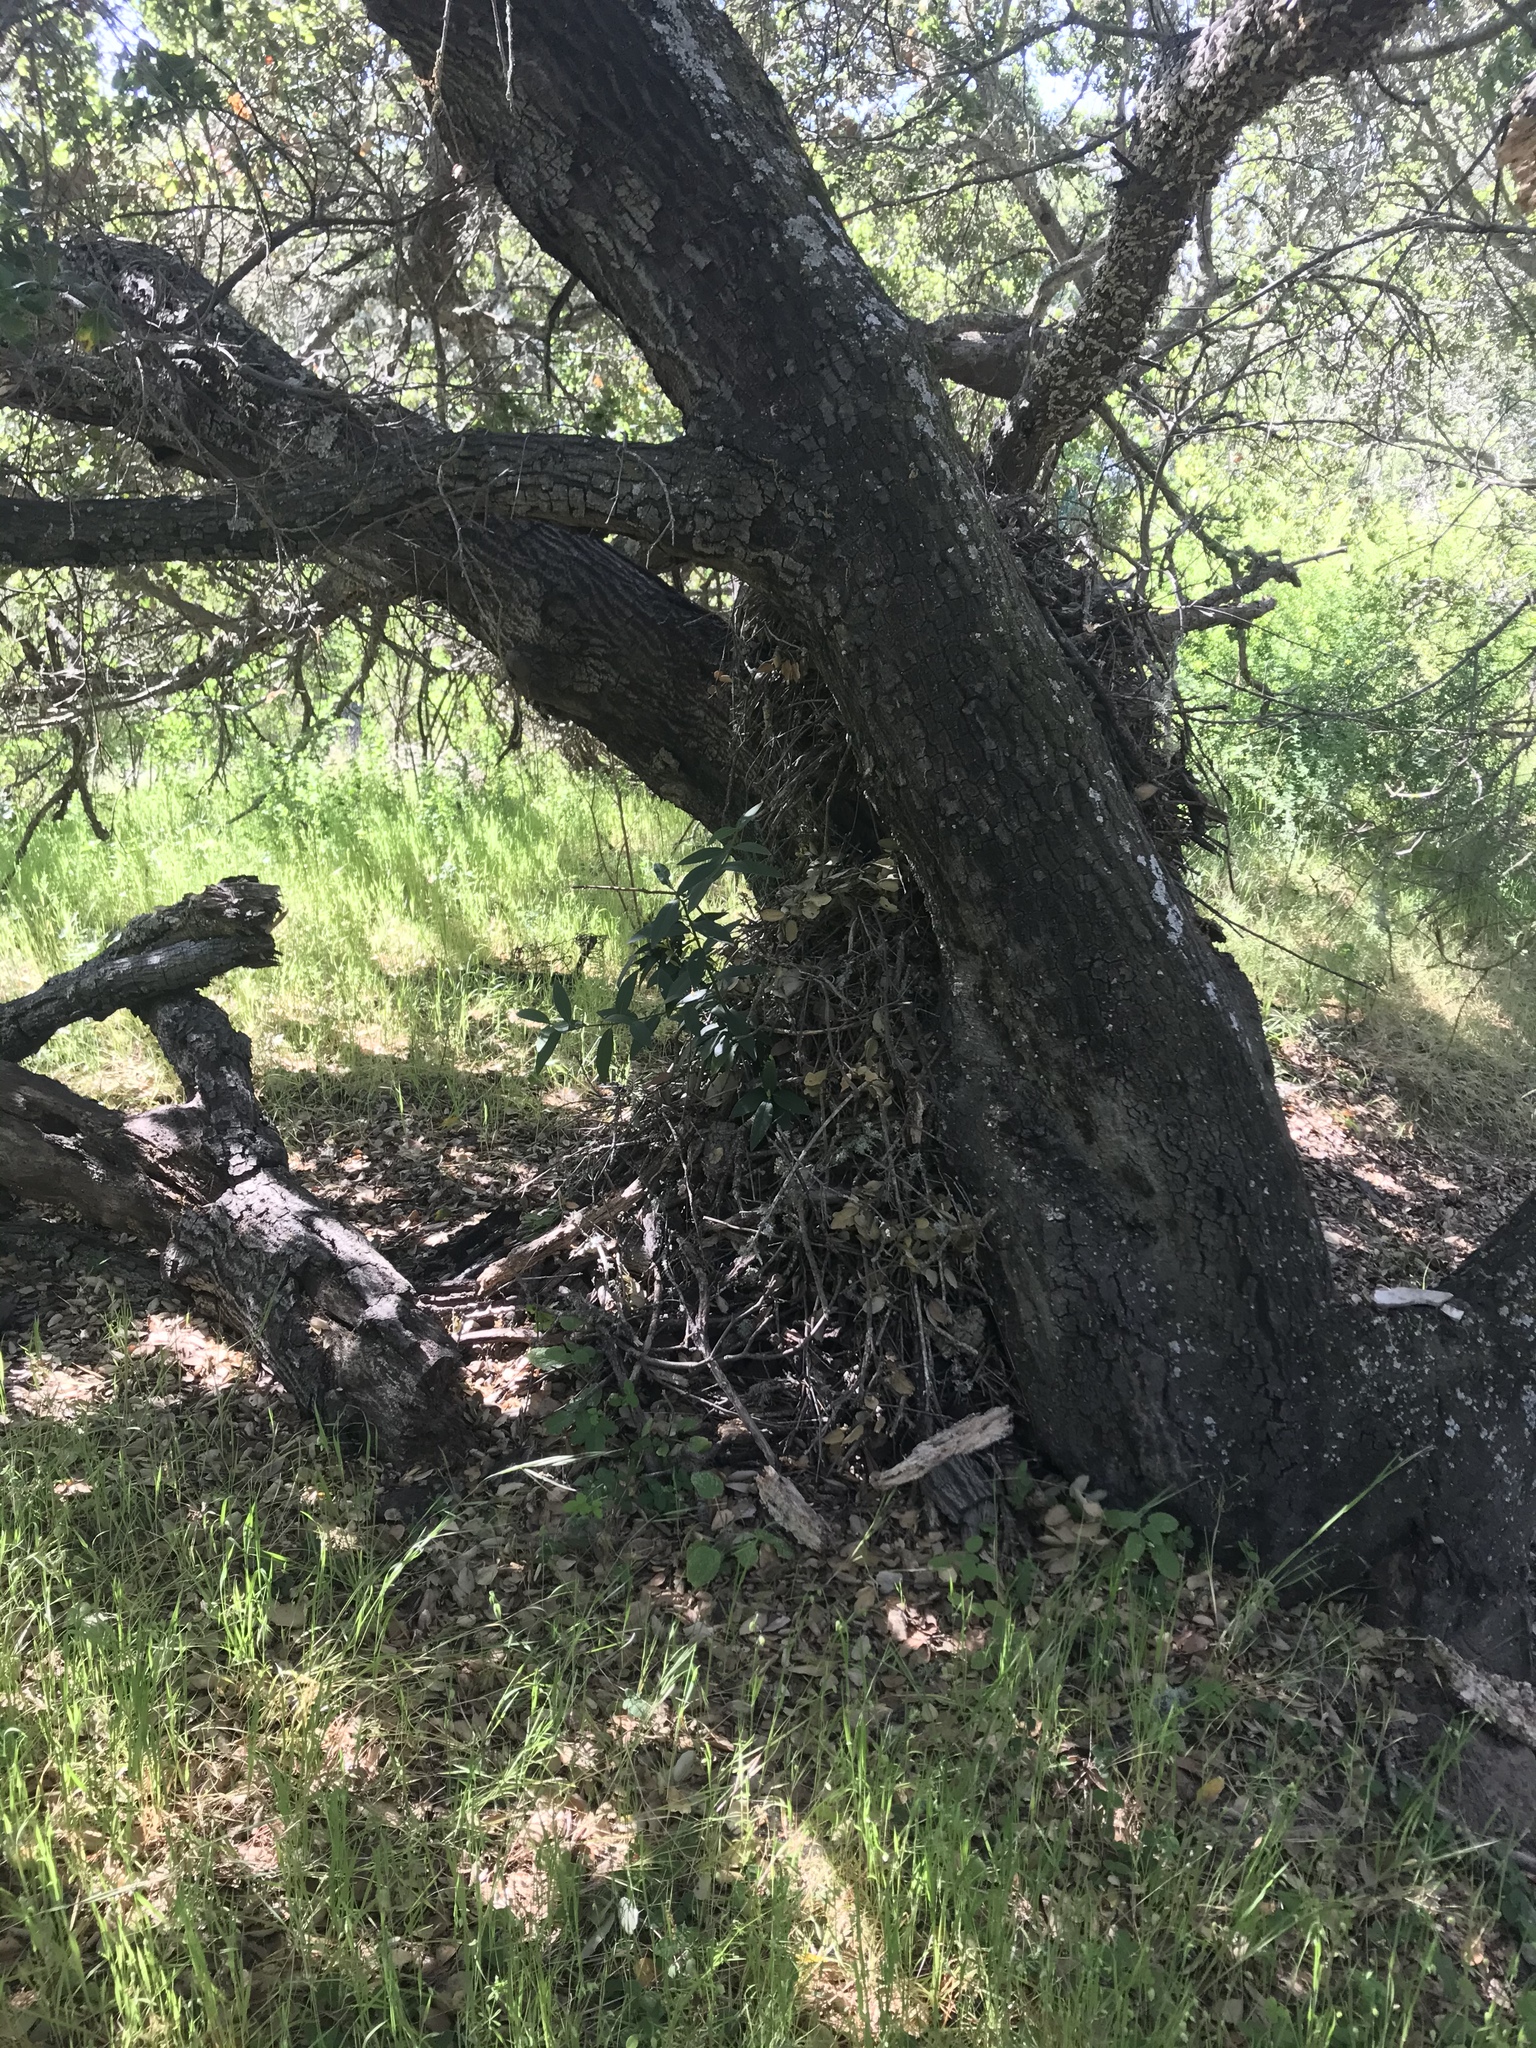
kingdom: Animalia
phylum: Chordata
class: Mammalia
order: Rodentia
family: Cricetidae
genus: Neotoma
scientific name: Neotoma fuscipes
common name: Dusky-footed woodrat
